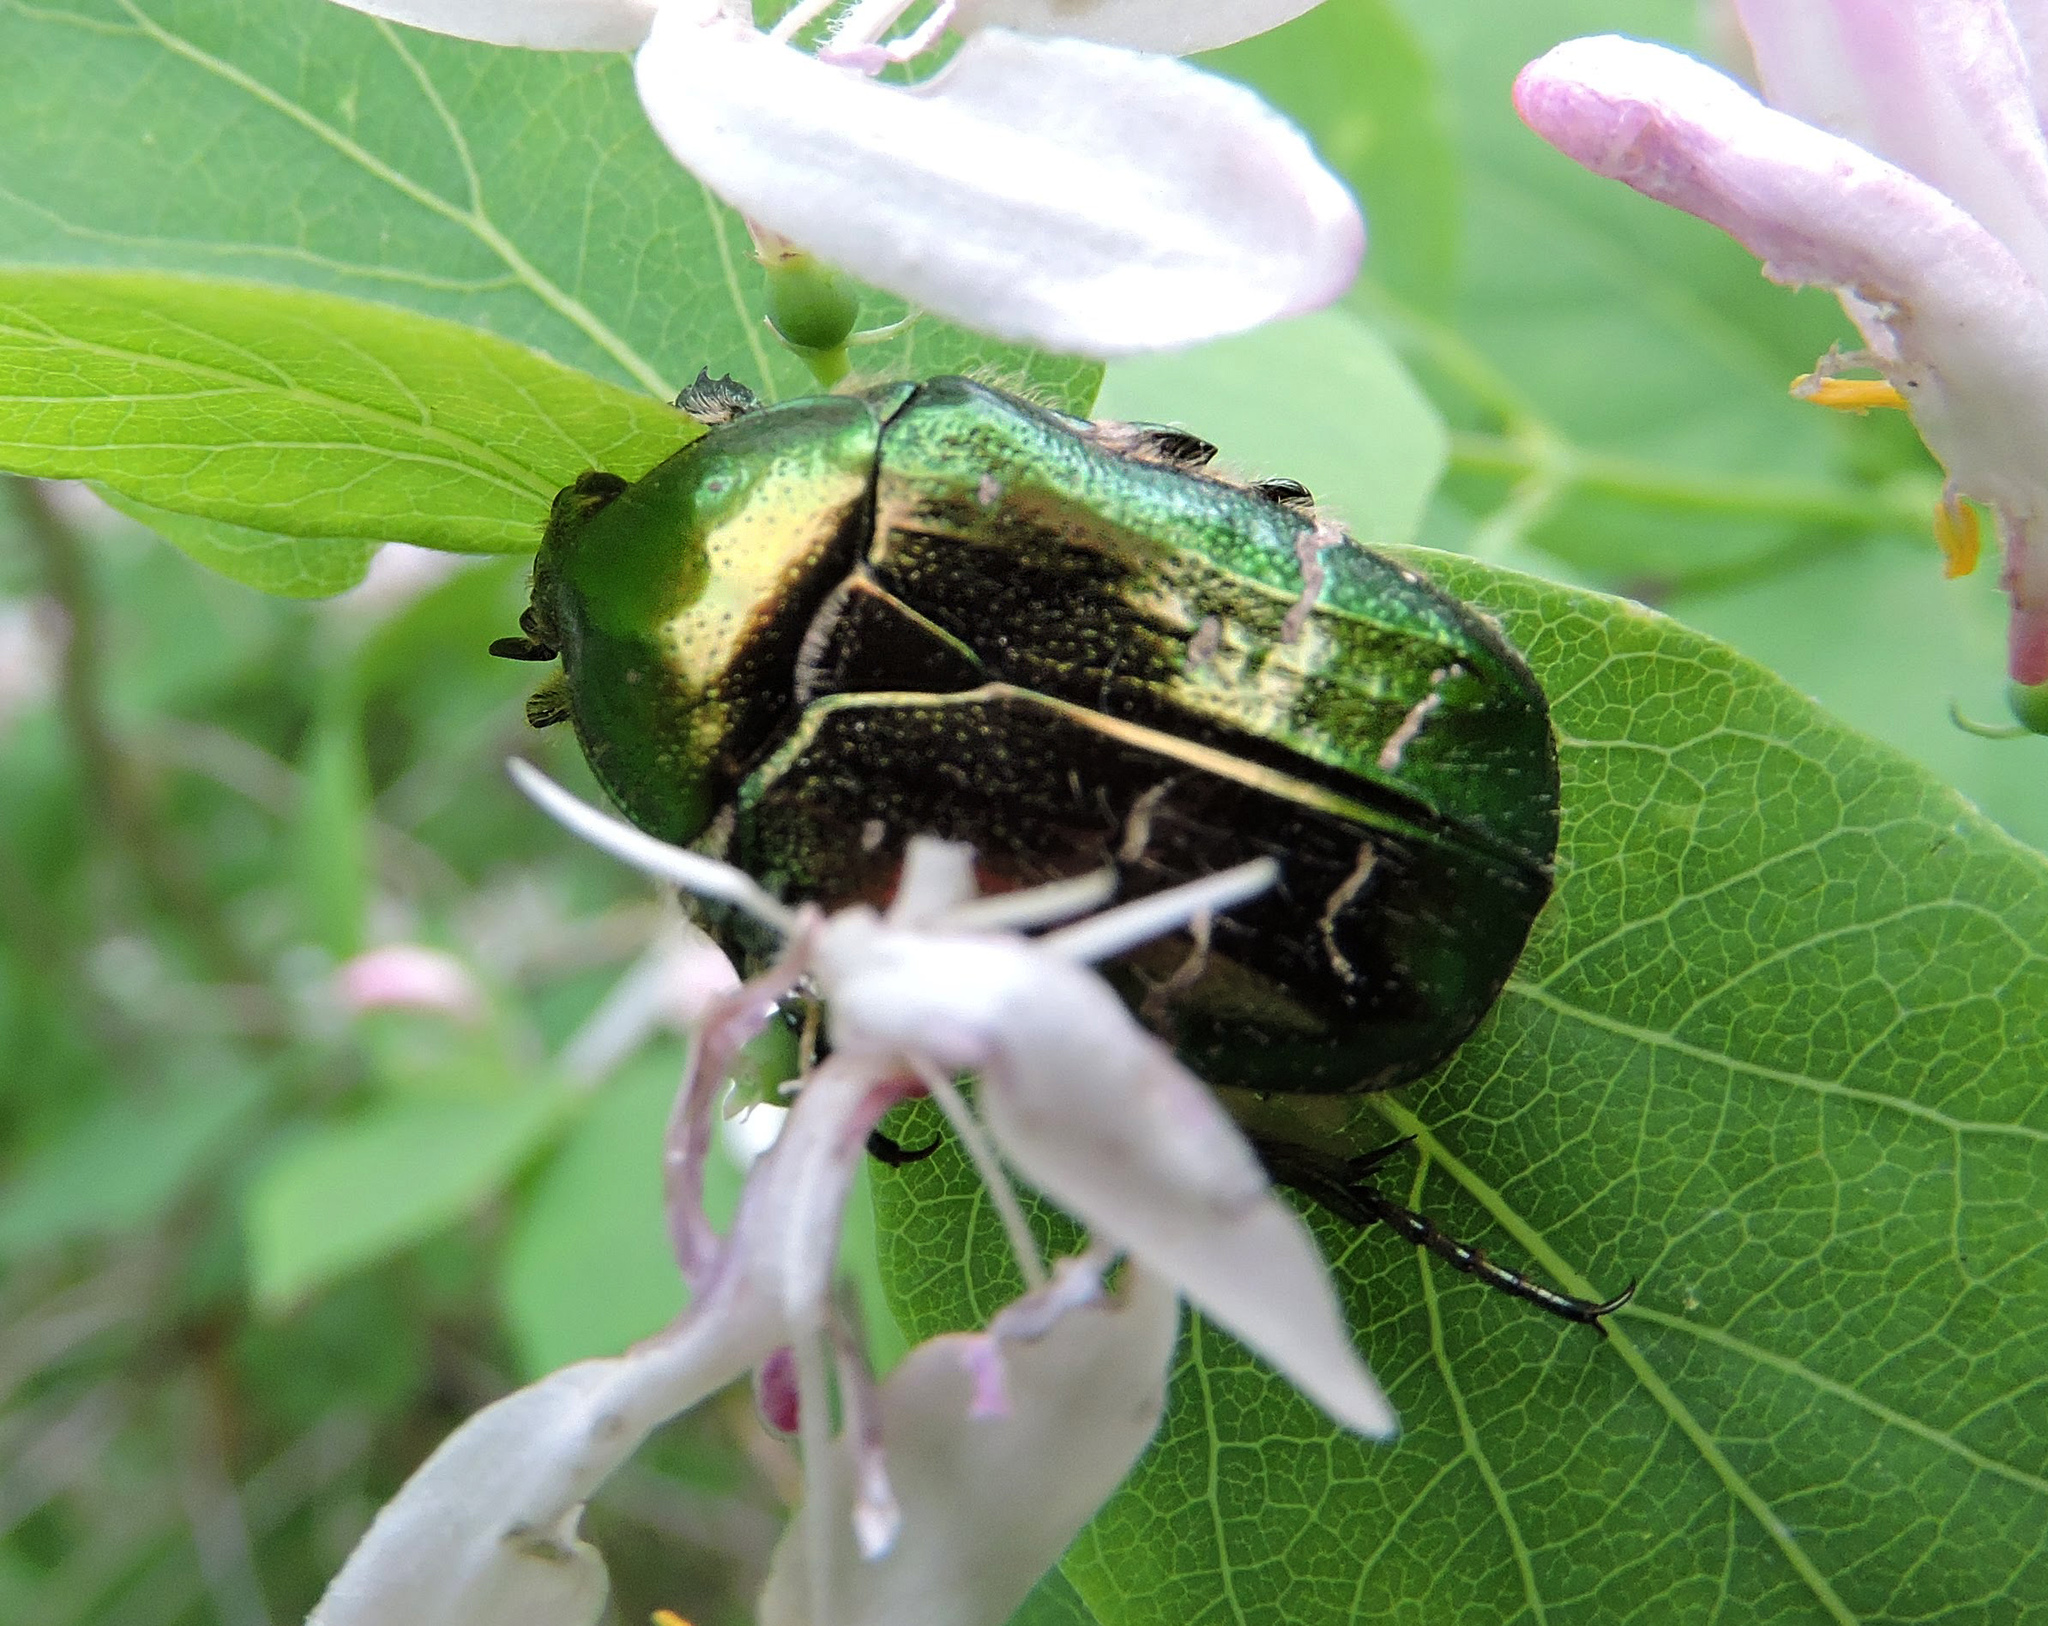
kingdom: Animalia
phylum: Arthropoda
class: Insecta
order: Coleoptera
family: Scarabaeidae
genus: Cetonia
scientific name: Cetonia aurata
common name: Rose chafer
